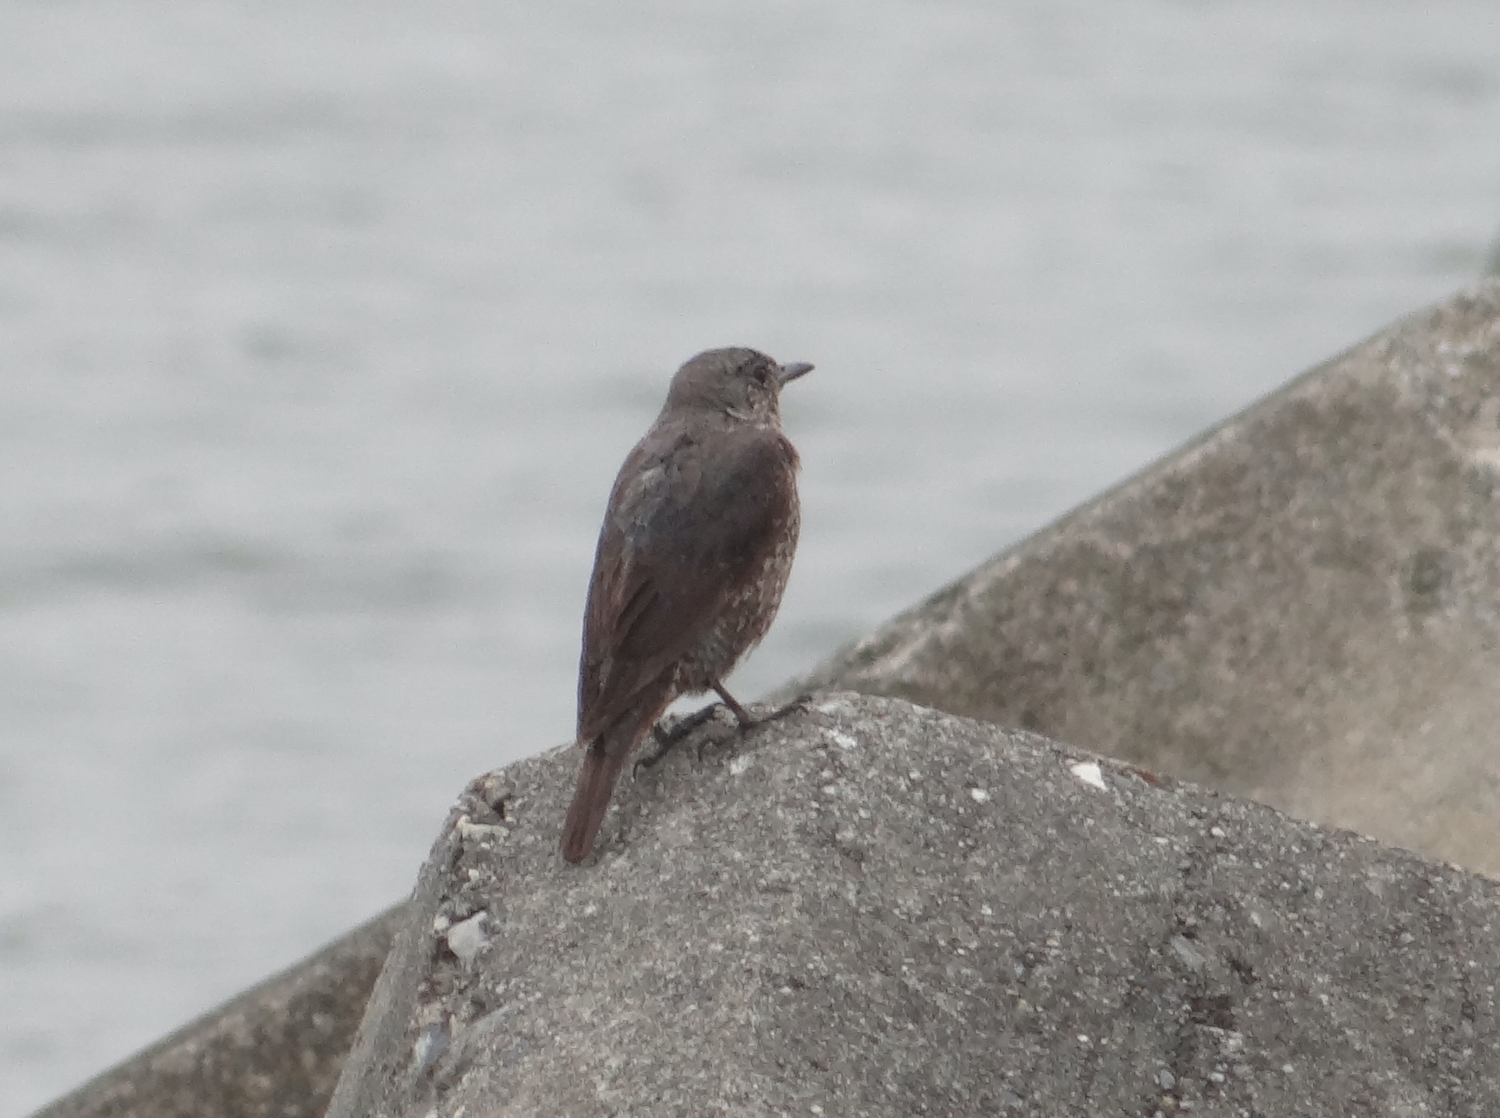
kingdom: Animalia
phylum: Chordata
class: Aves
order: Passeriformes
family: Muscicapidae
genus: Monticola
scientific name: Monticola solitarius
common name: Blue rock thrush
